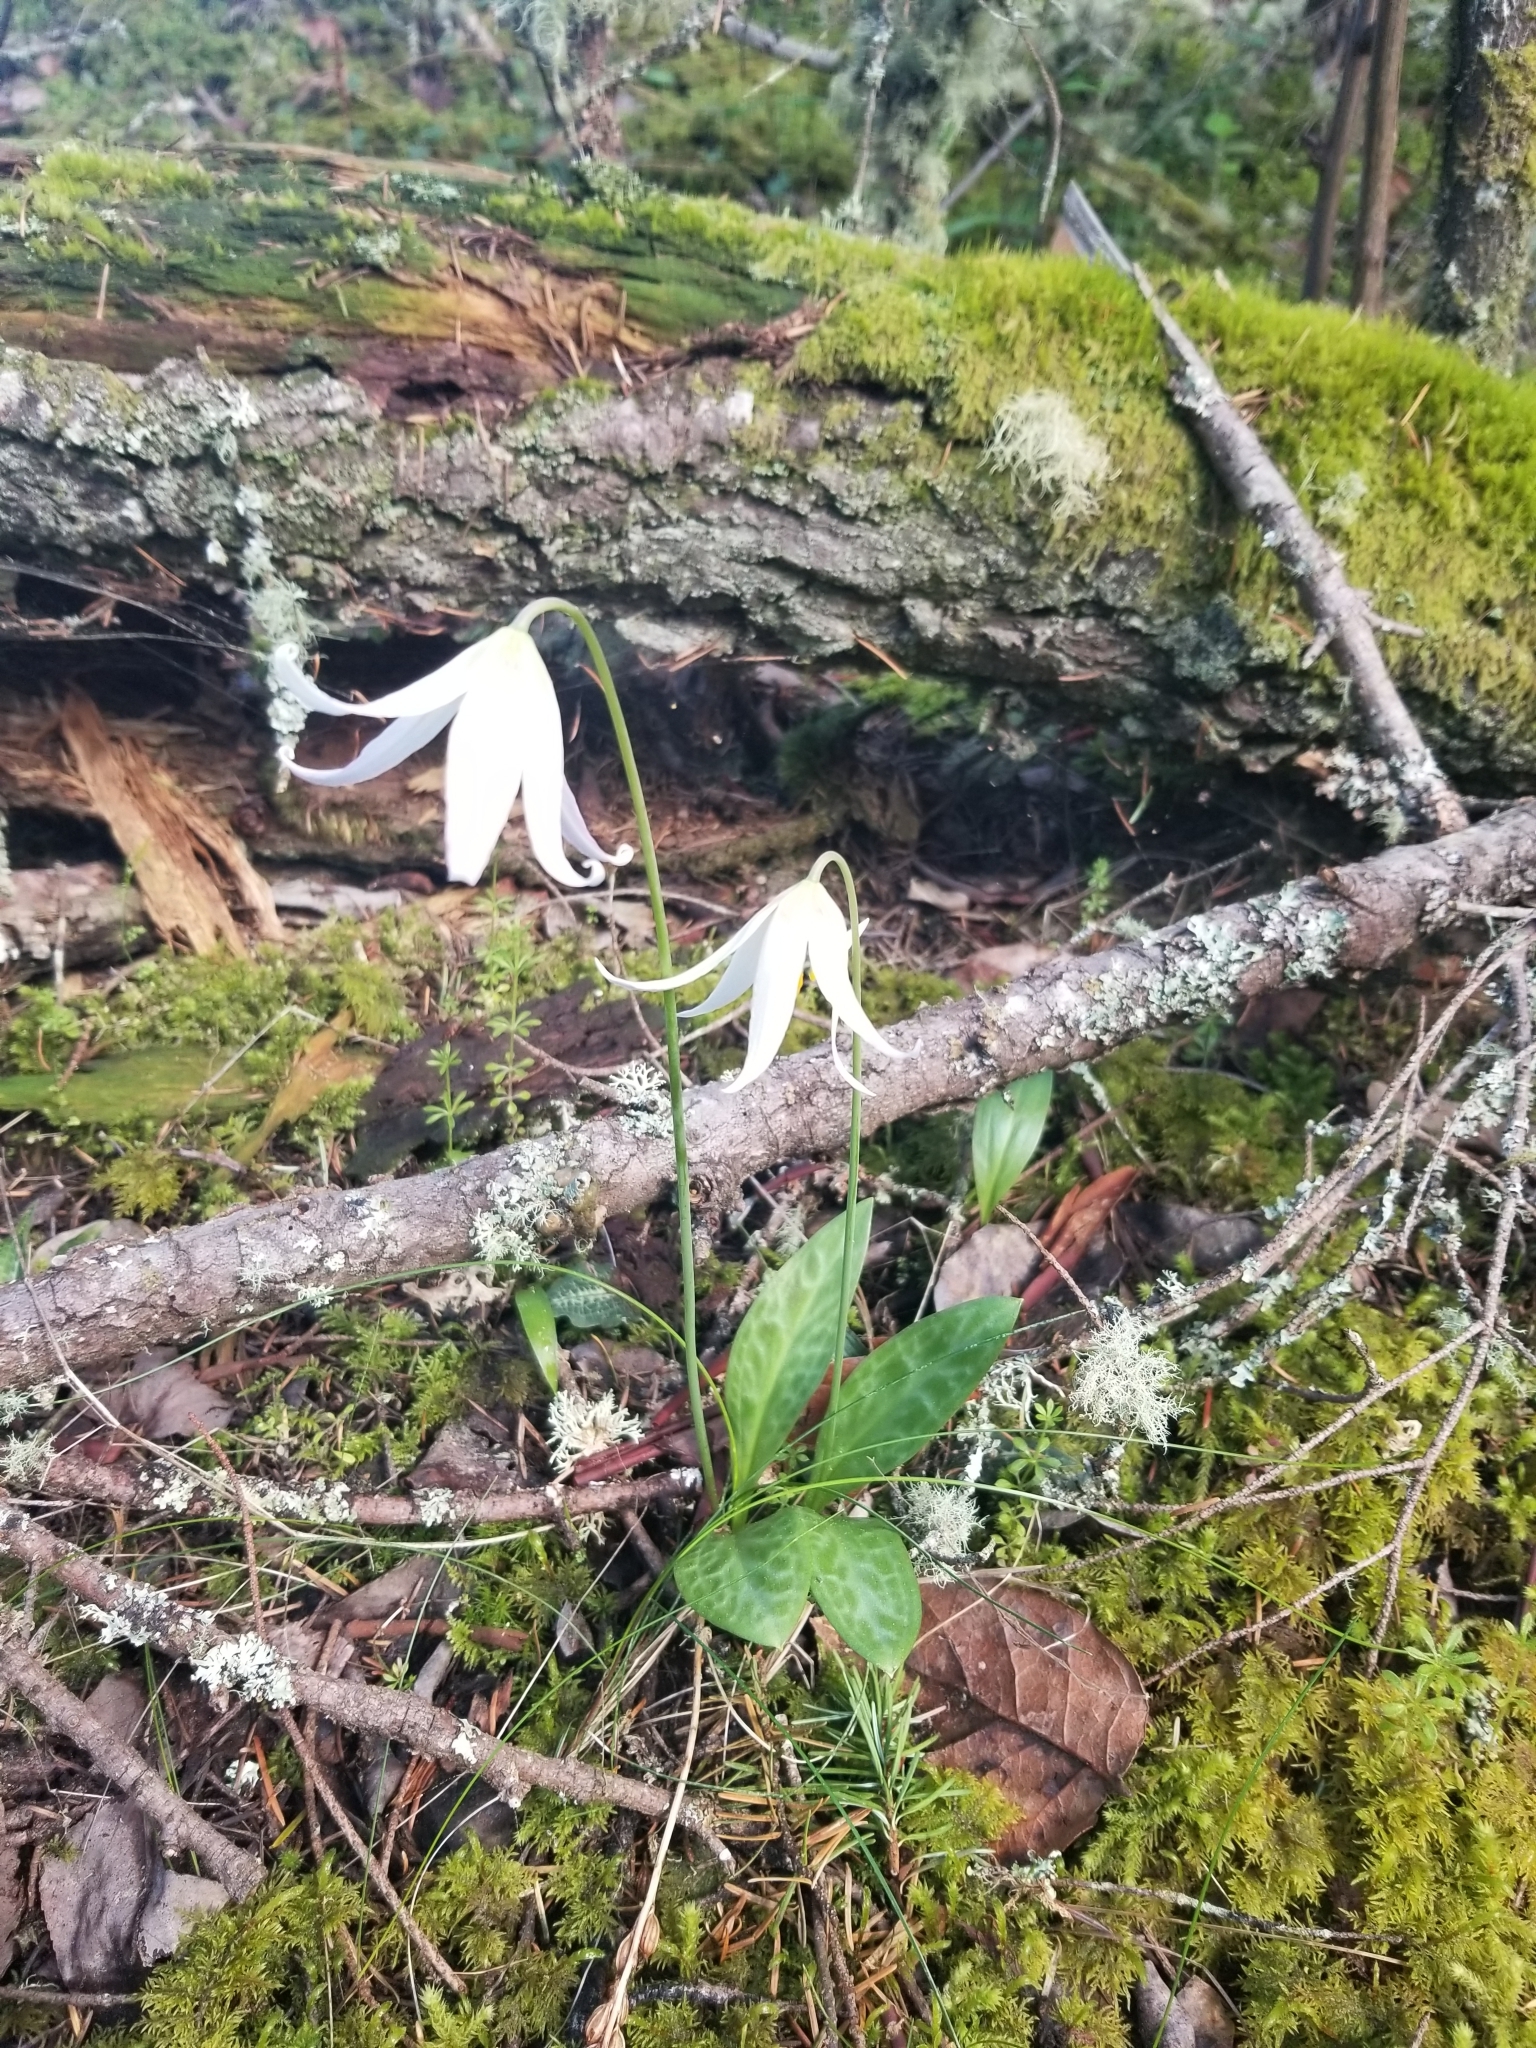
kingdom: Plantae
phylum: Tracheophyta
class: Liliopsida
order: Liliales
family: Liliaceae
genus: Erythronium
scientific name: Erythronium oregonum
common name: Giant adder's-tongue
